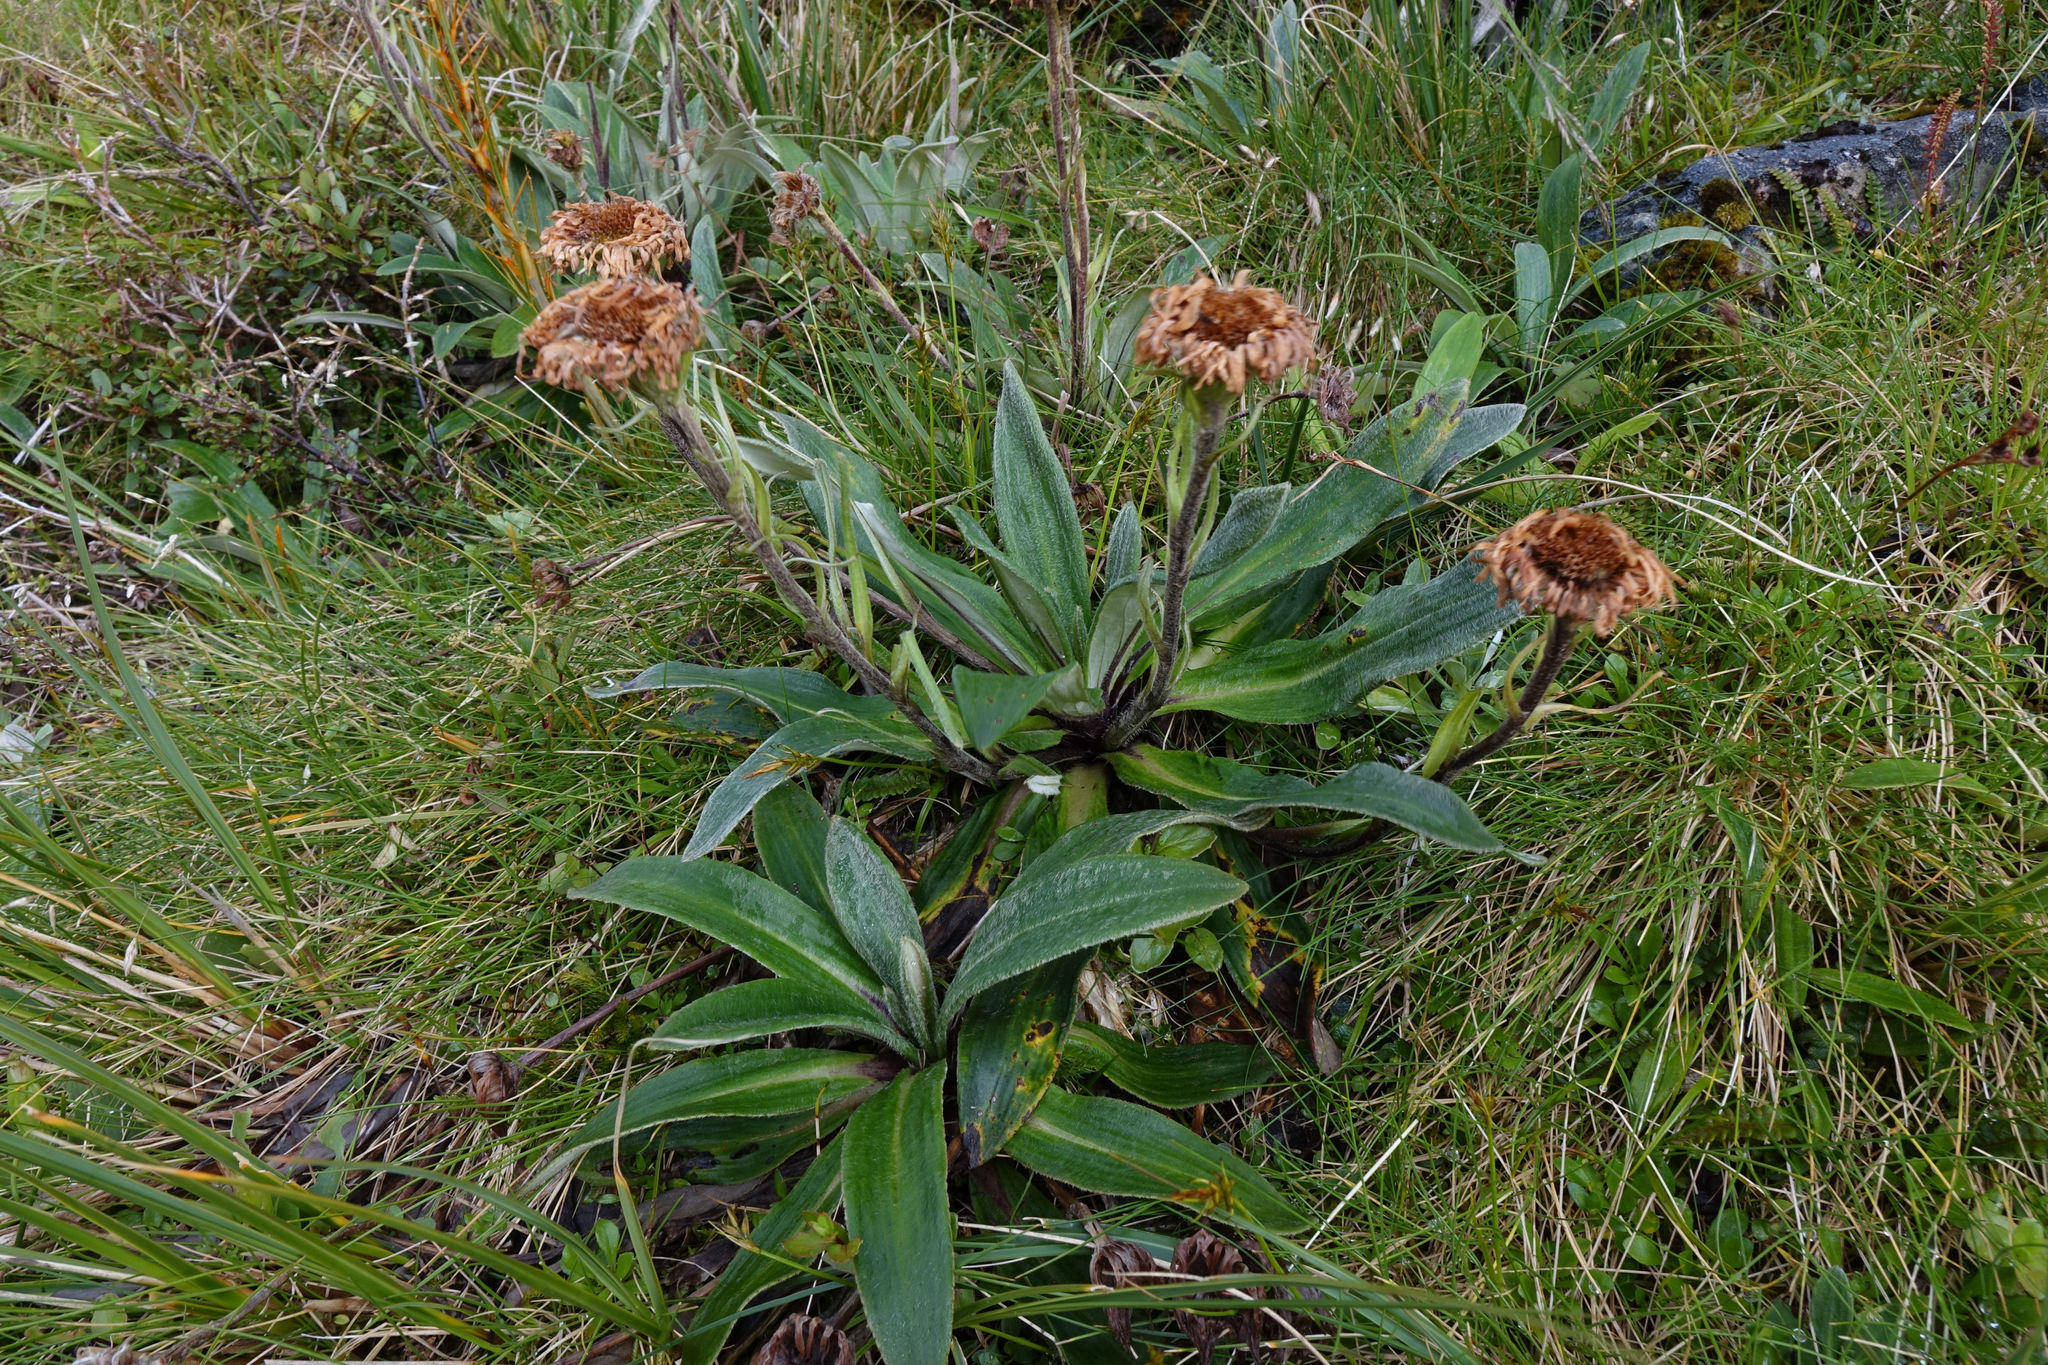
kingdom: Plantae
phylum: Tracheophyta
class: Magnoliopsida
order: Asterales
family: Asteraceae
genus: Celmisia
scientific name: Celmisia verbascifolia
